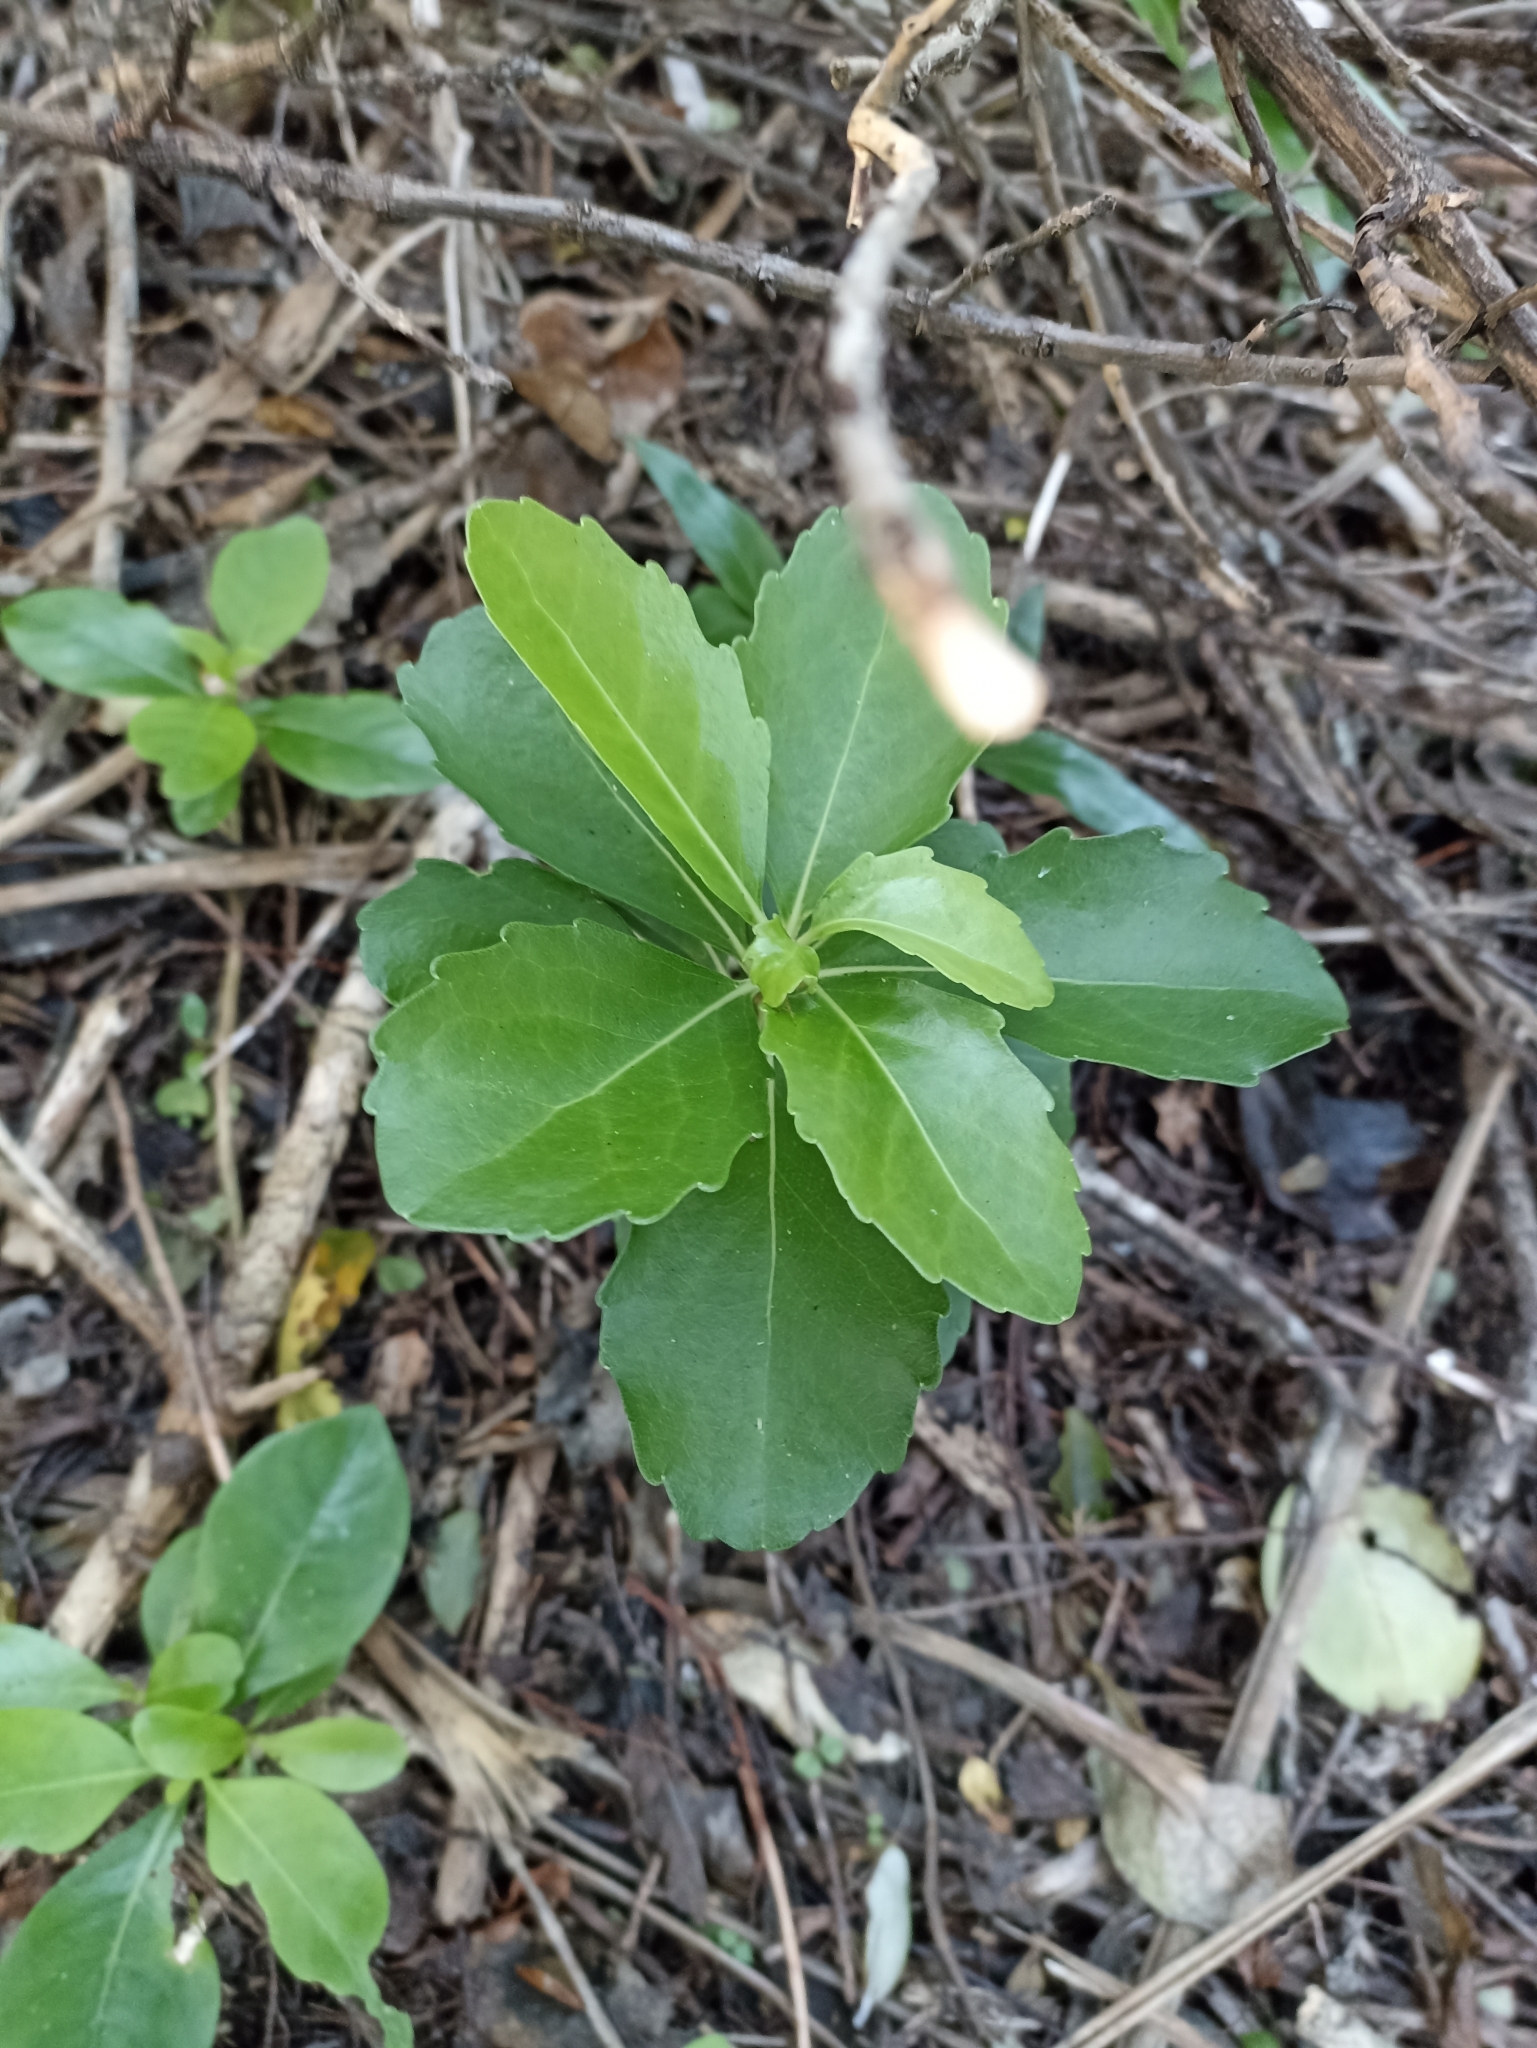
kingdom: Plantae
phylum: Tracheophyta
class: Magnoliopsida
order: Malpighiales
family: Violaceae
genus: Melicytus
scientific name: Melicytus novae-zelandiae
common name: Coastal mahoe
